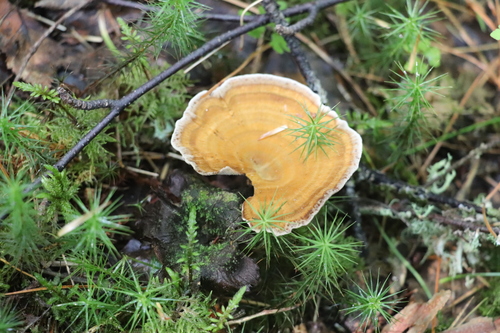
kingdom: Fungi
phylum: Basidiomycota
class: Agaricomycetes
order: Hymenochaetales
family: Hymenochaetaceae
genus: Coltricia
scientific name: Coltricia perennis
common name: Tiger's eye
